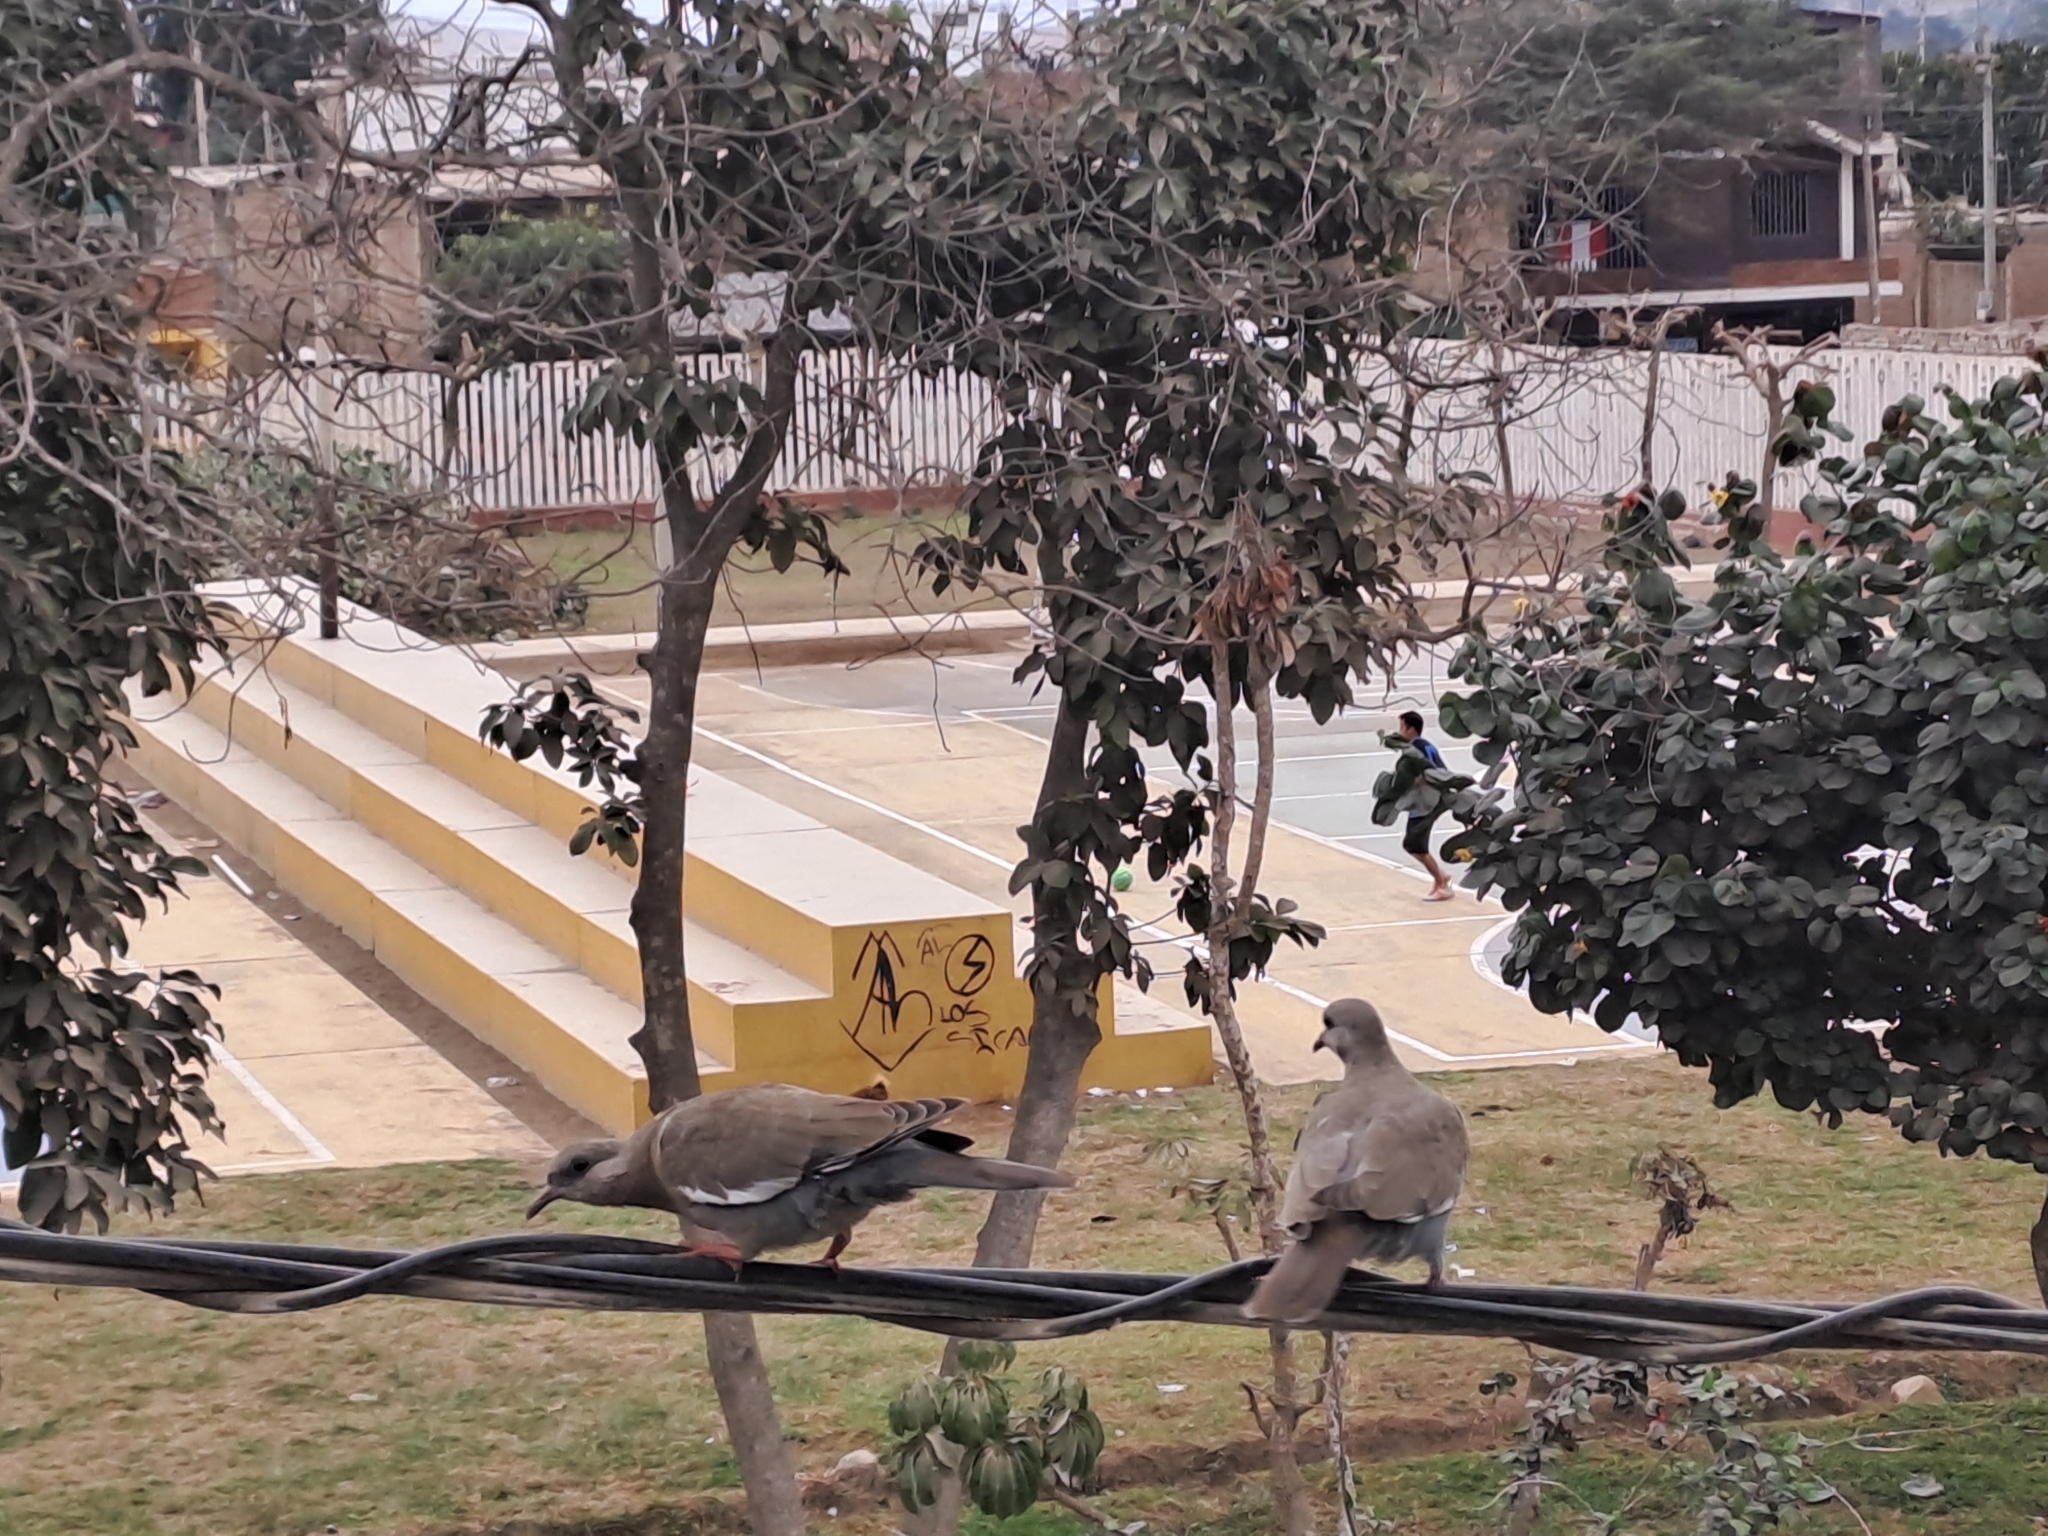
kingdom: Animalia
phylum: Chordata
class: Aves
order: Columbiformes
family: Columbidae
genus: Zenaida
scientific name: Zenaida meloda
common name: West peruvian dove
